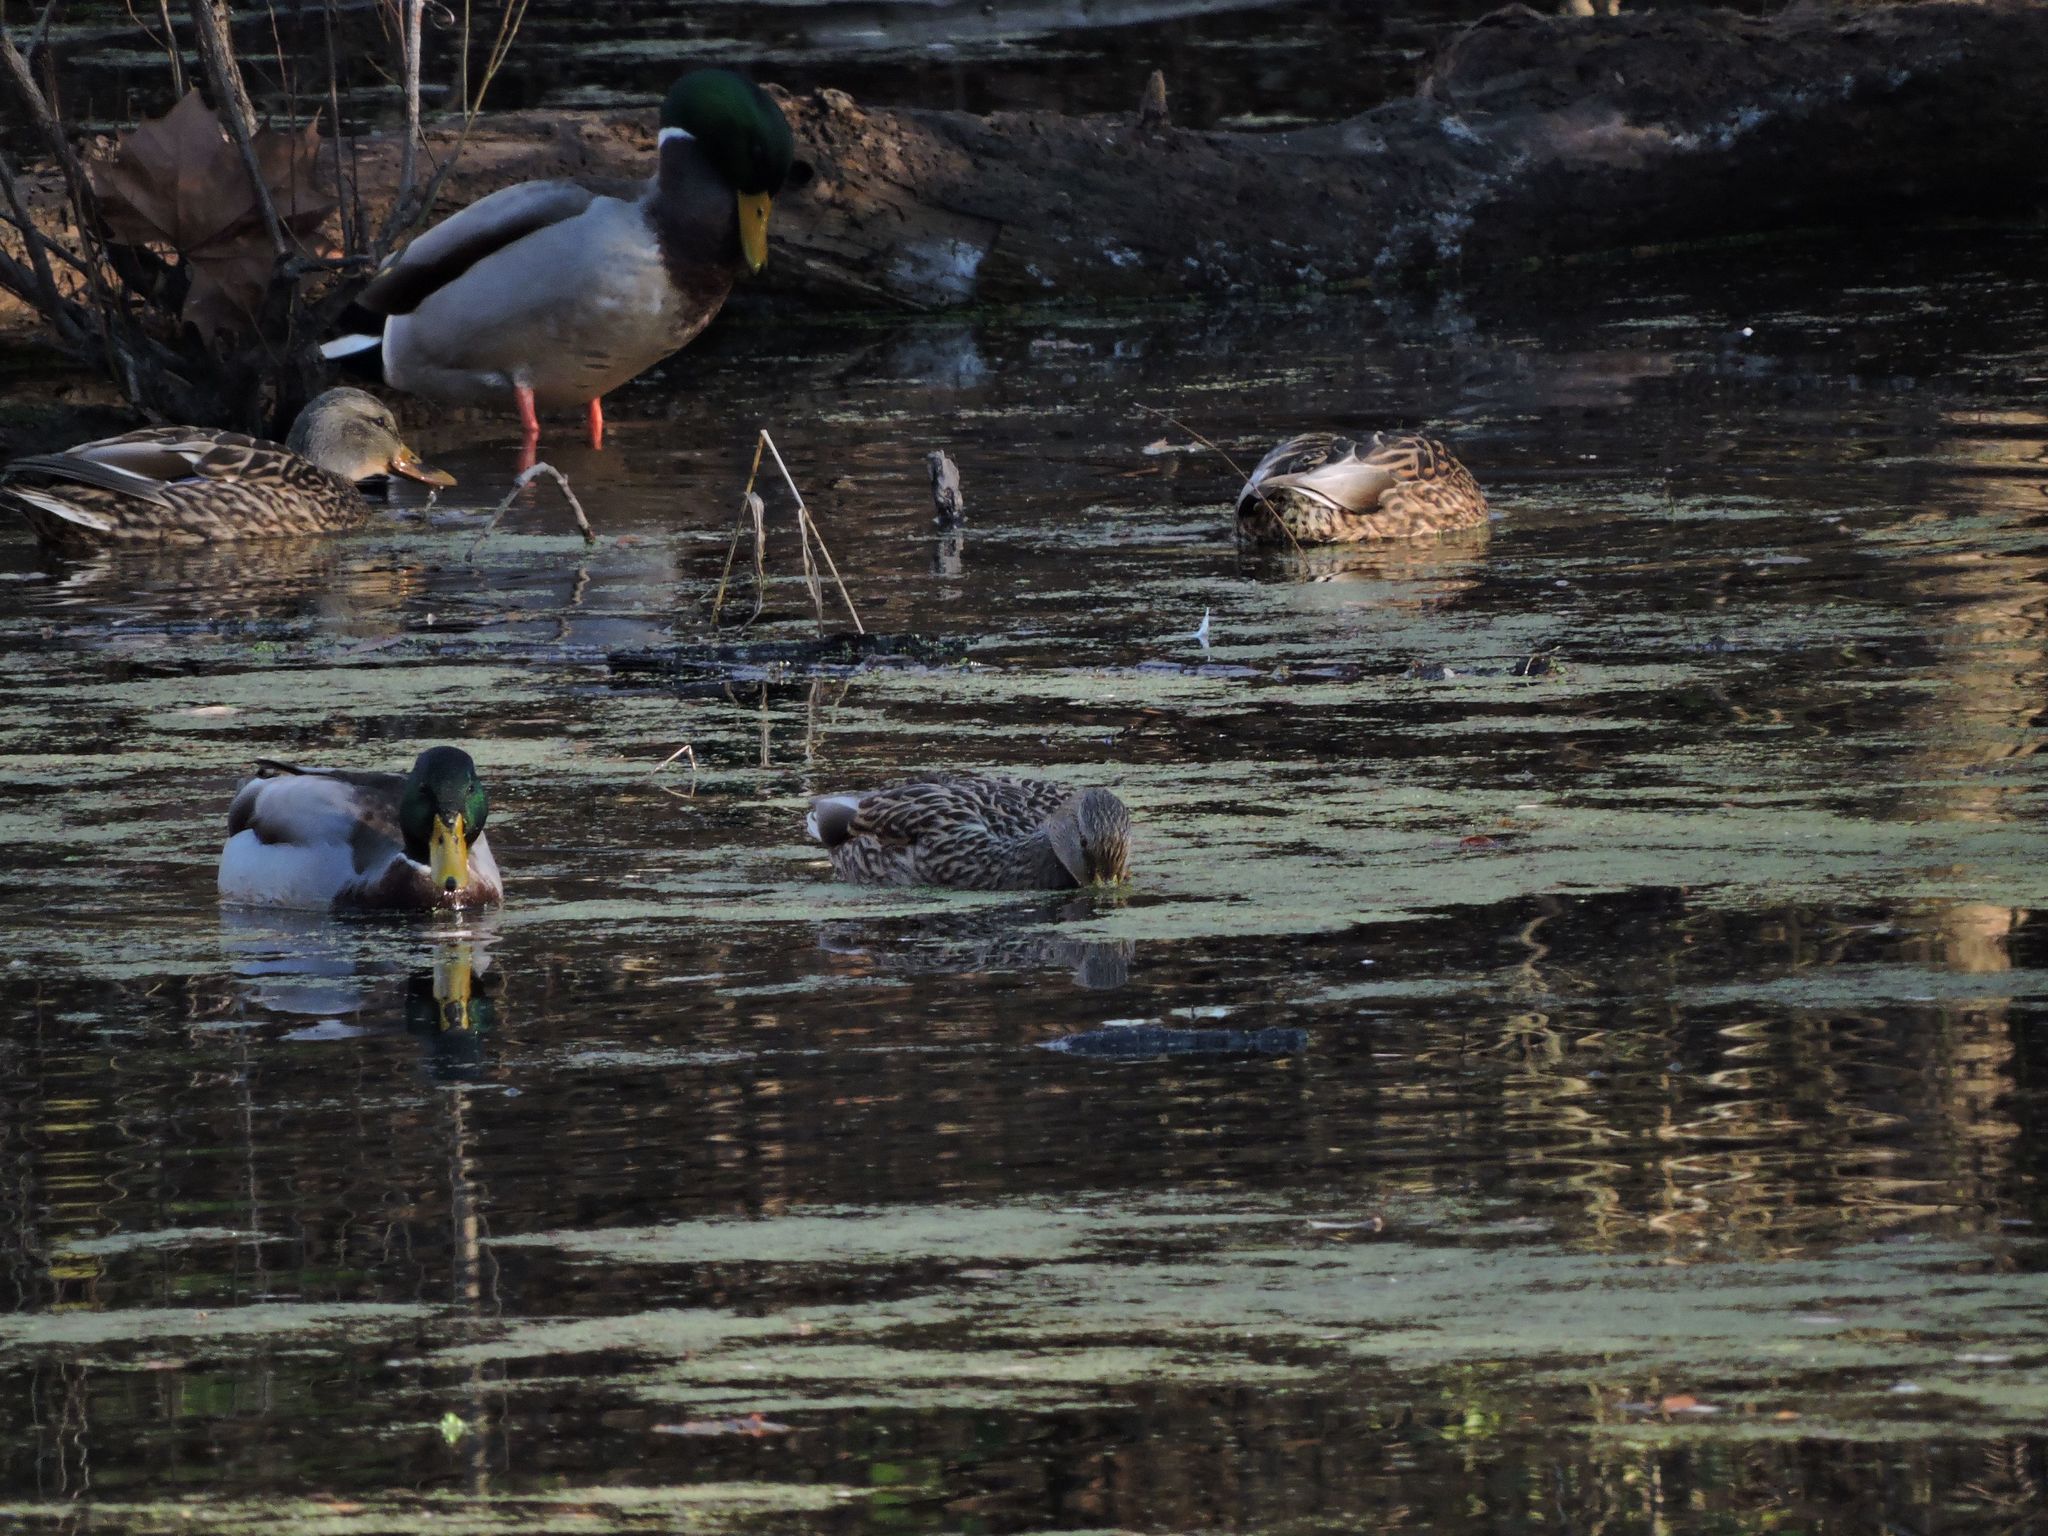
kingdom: Animalia
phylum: Chordata
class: Aves
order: Anseriformes
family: Anatidae
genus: Anas
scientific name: Anas platyrhynchos
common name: Mallard
